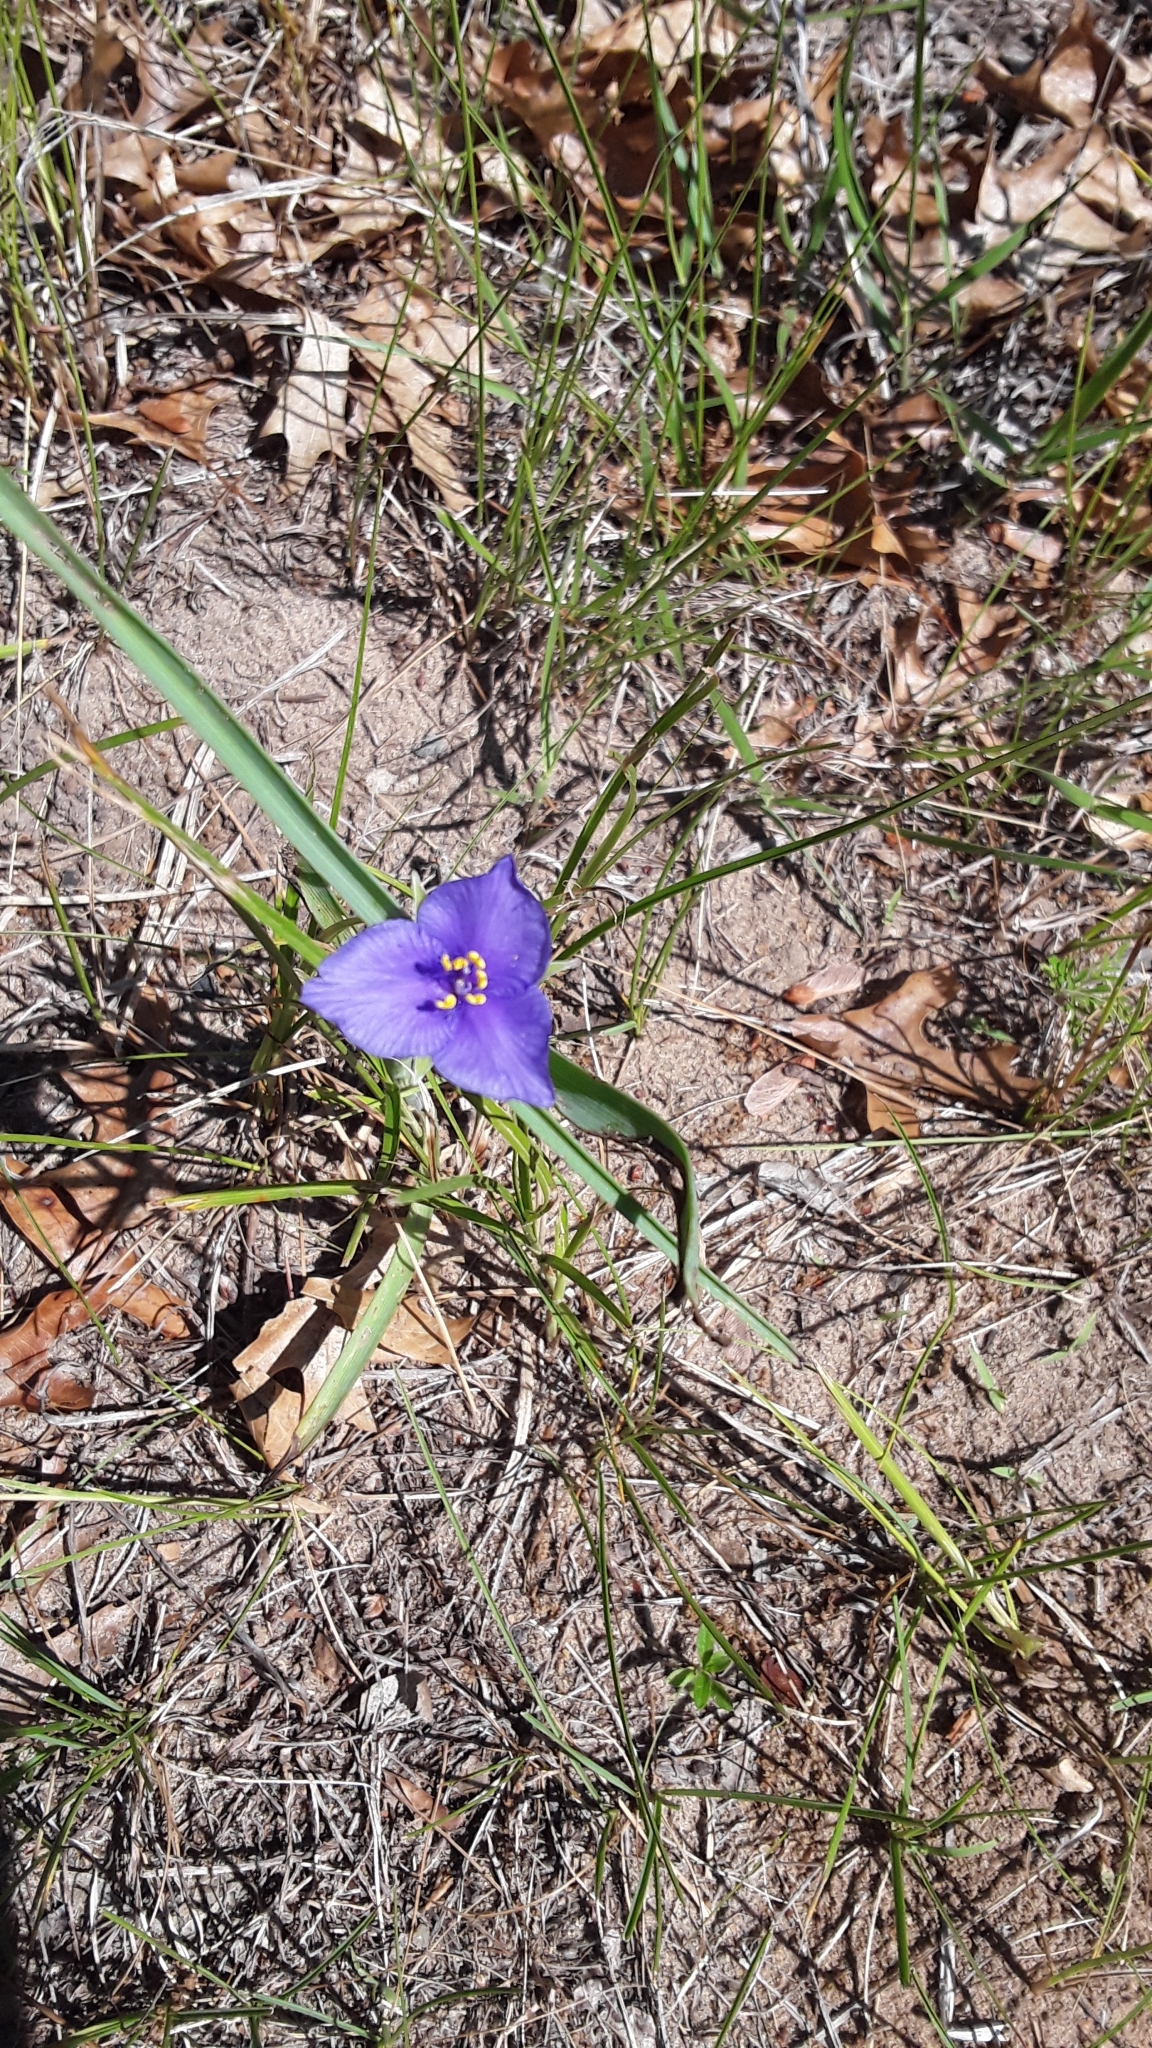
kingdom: Plantae
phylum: Tracheophyta
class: Liliopsida
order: Commelinales
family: Commelinaceae
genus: Tradescantia
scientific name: Tradescantia
